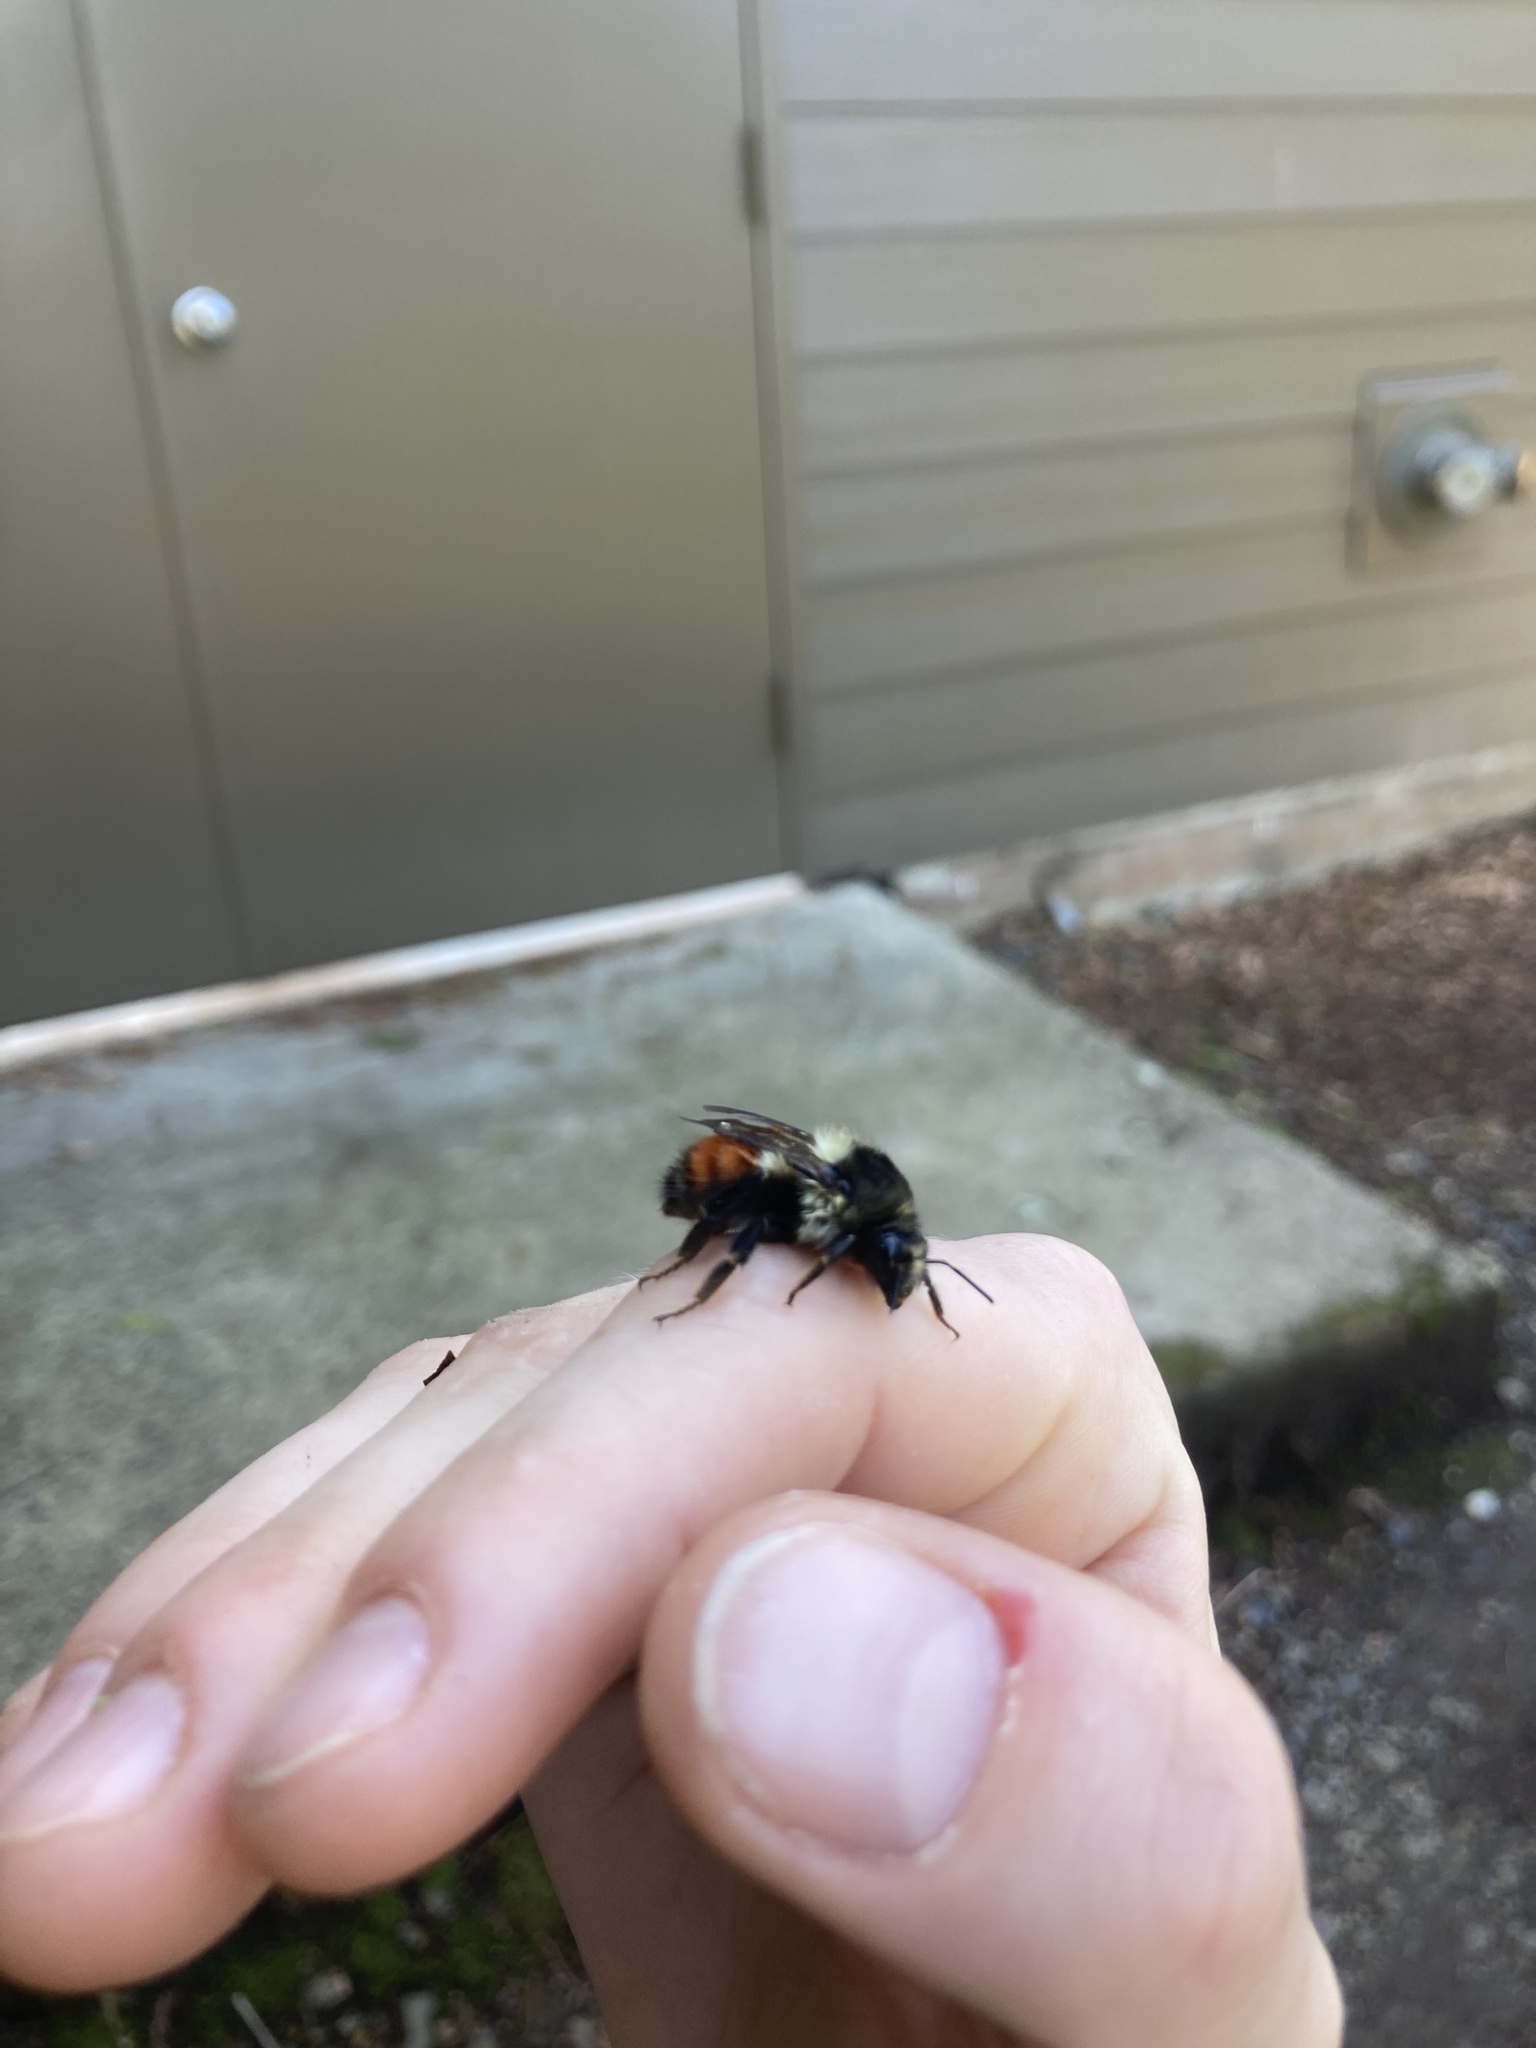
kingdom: Animalia
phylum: Arthropoda
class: Insecta
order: Hymenoptera
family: Apidae
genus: Bombus
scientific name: Bombus melanopygus
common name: Black tail bumble bee
